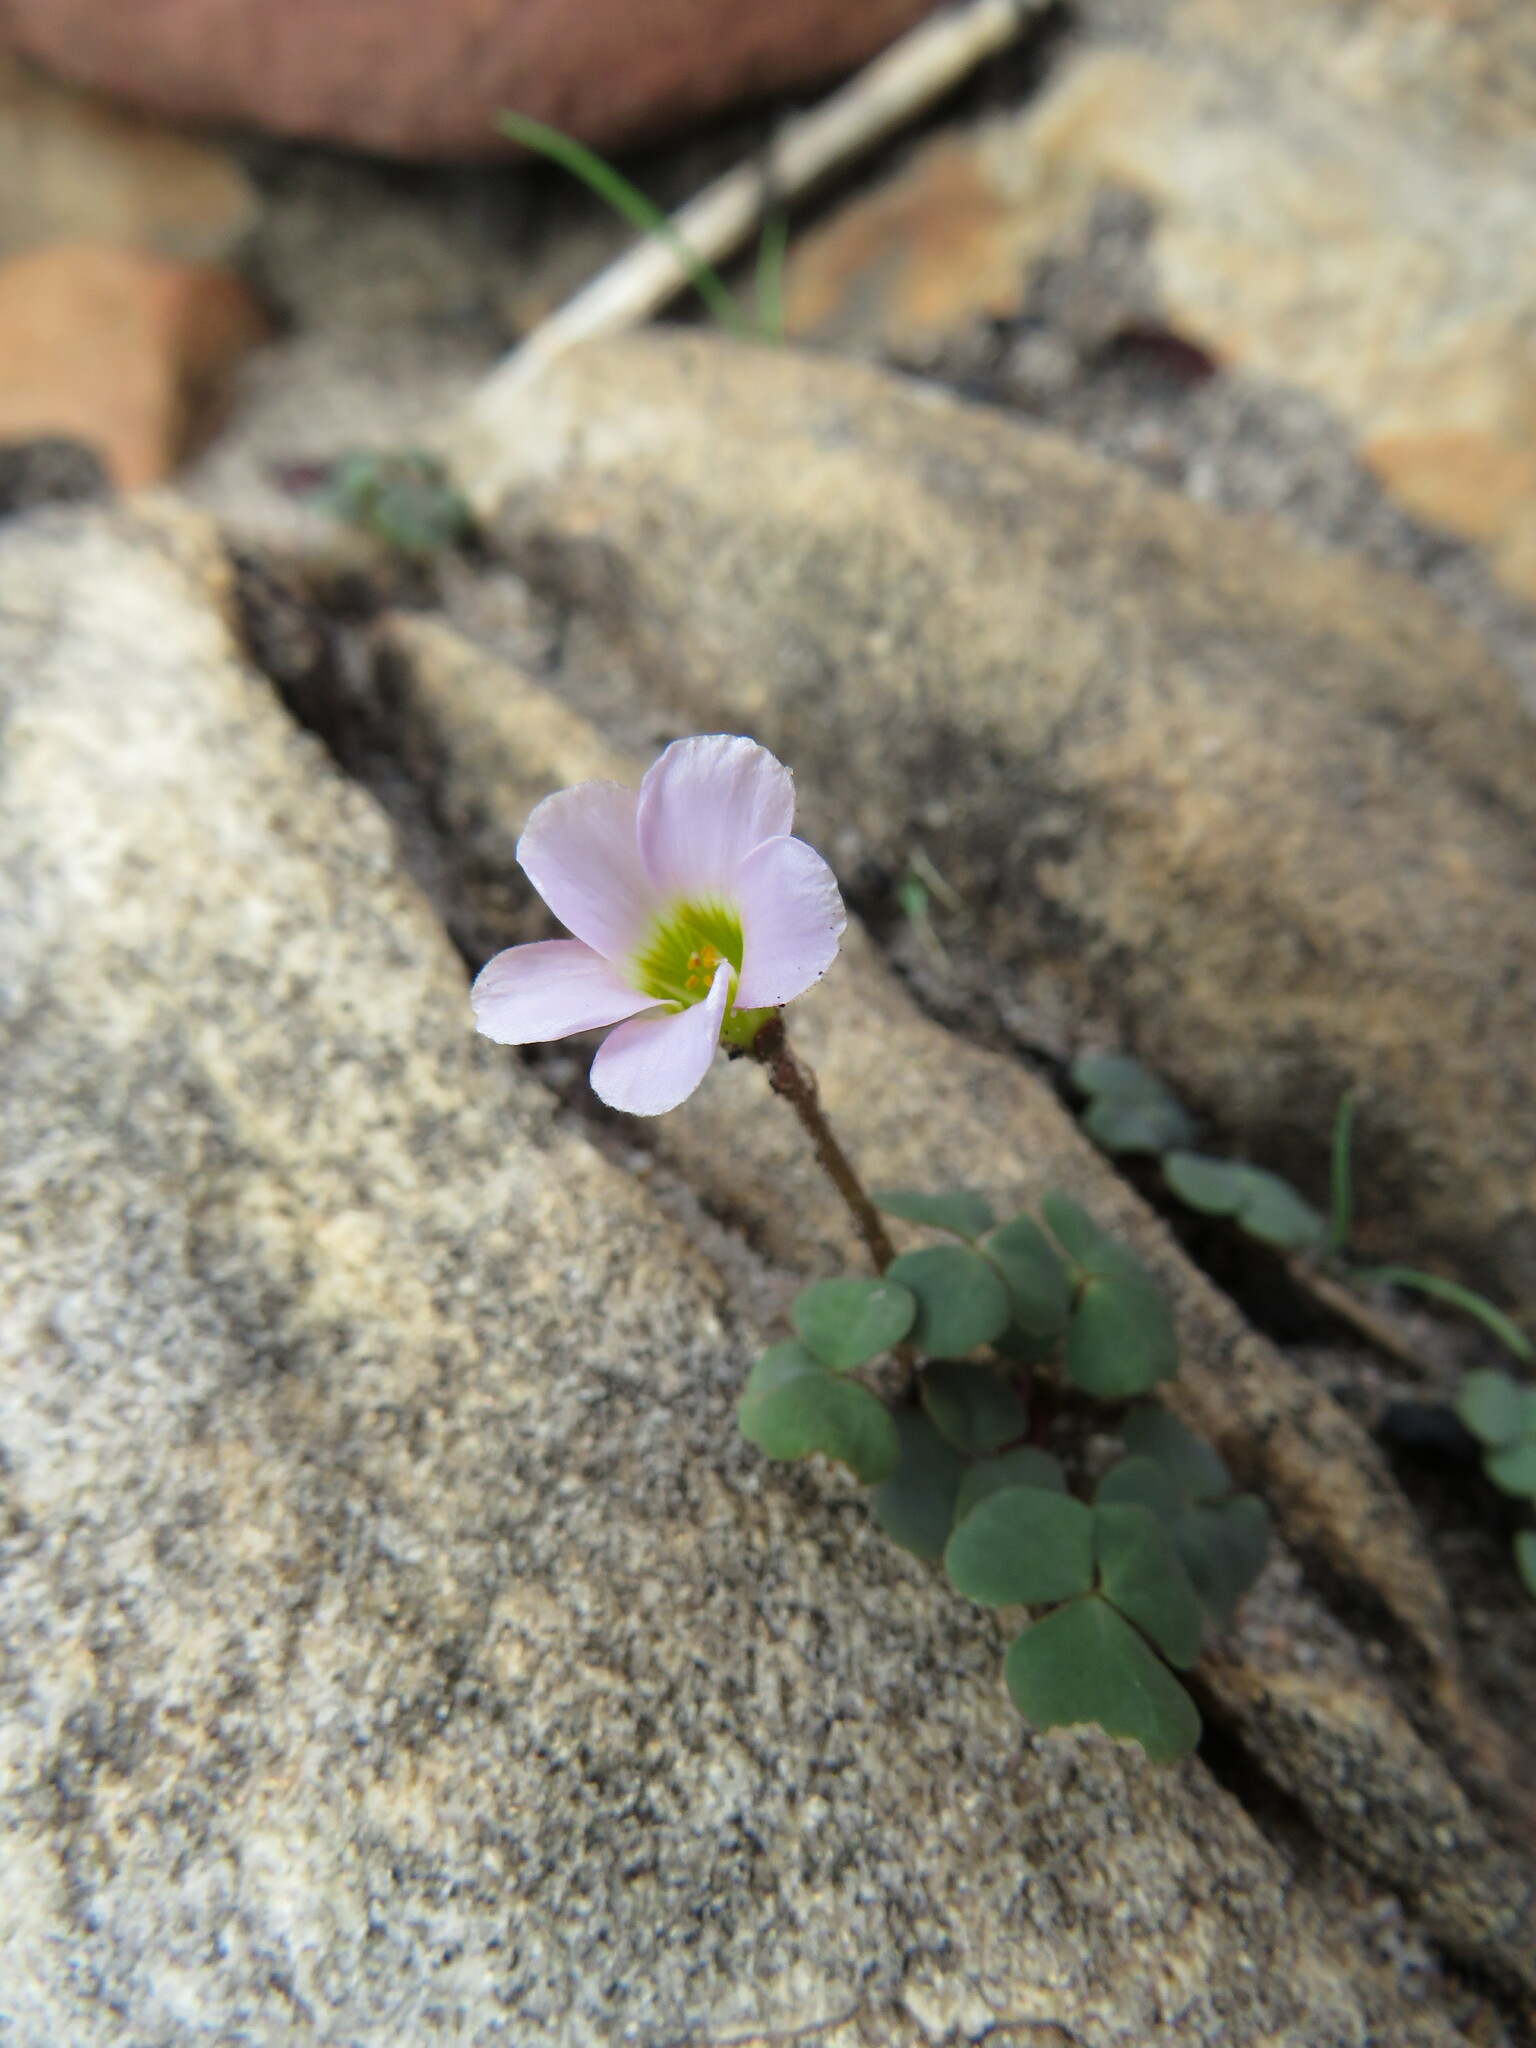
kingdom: Plantae
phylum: Tracheophyta
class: Magnoliopsida
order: Oxalidales
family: Oxalidaceae
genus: Oxalis
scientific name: Oxalis punctata
